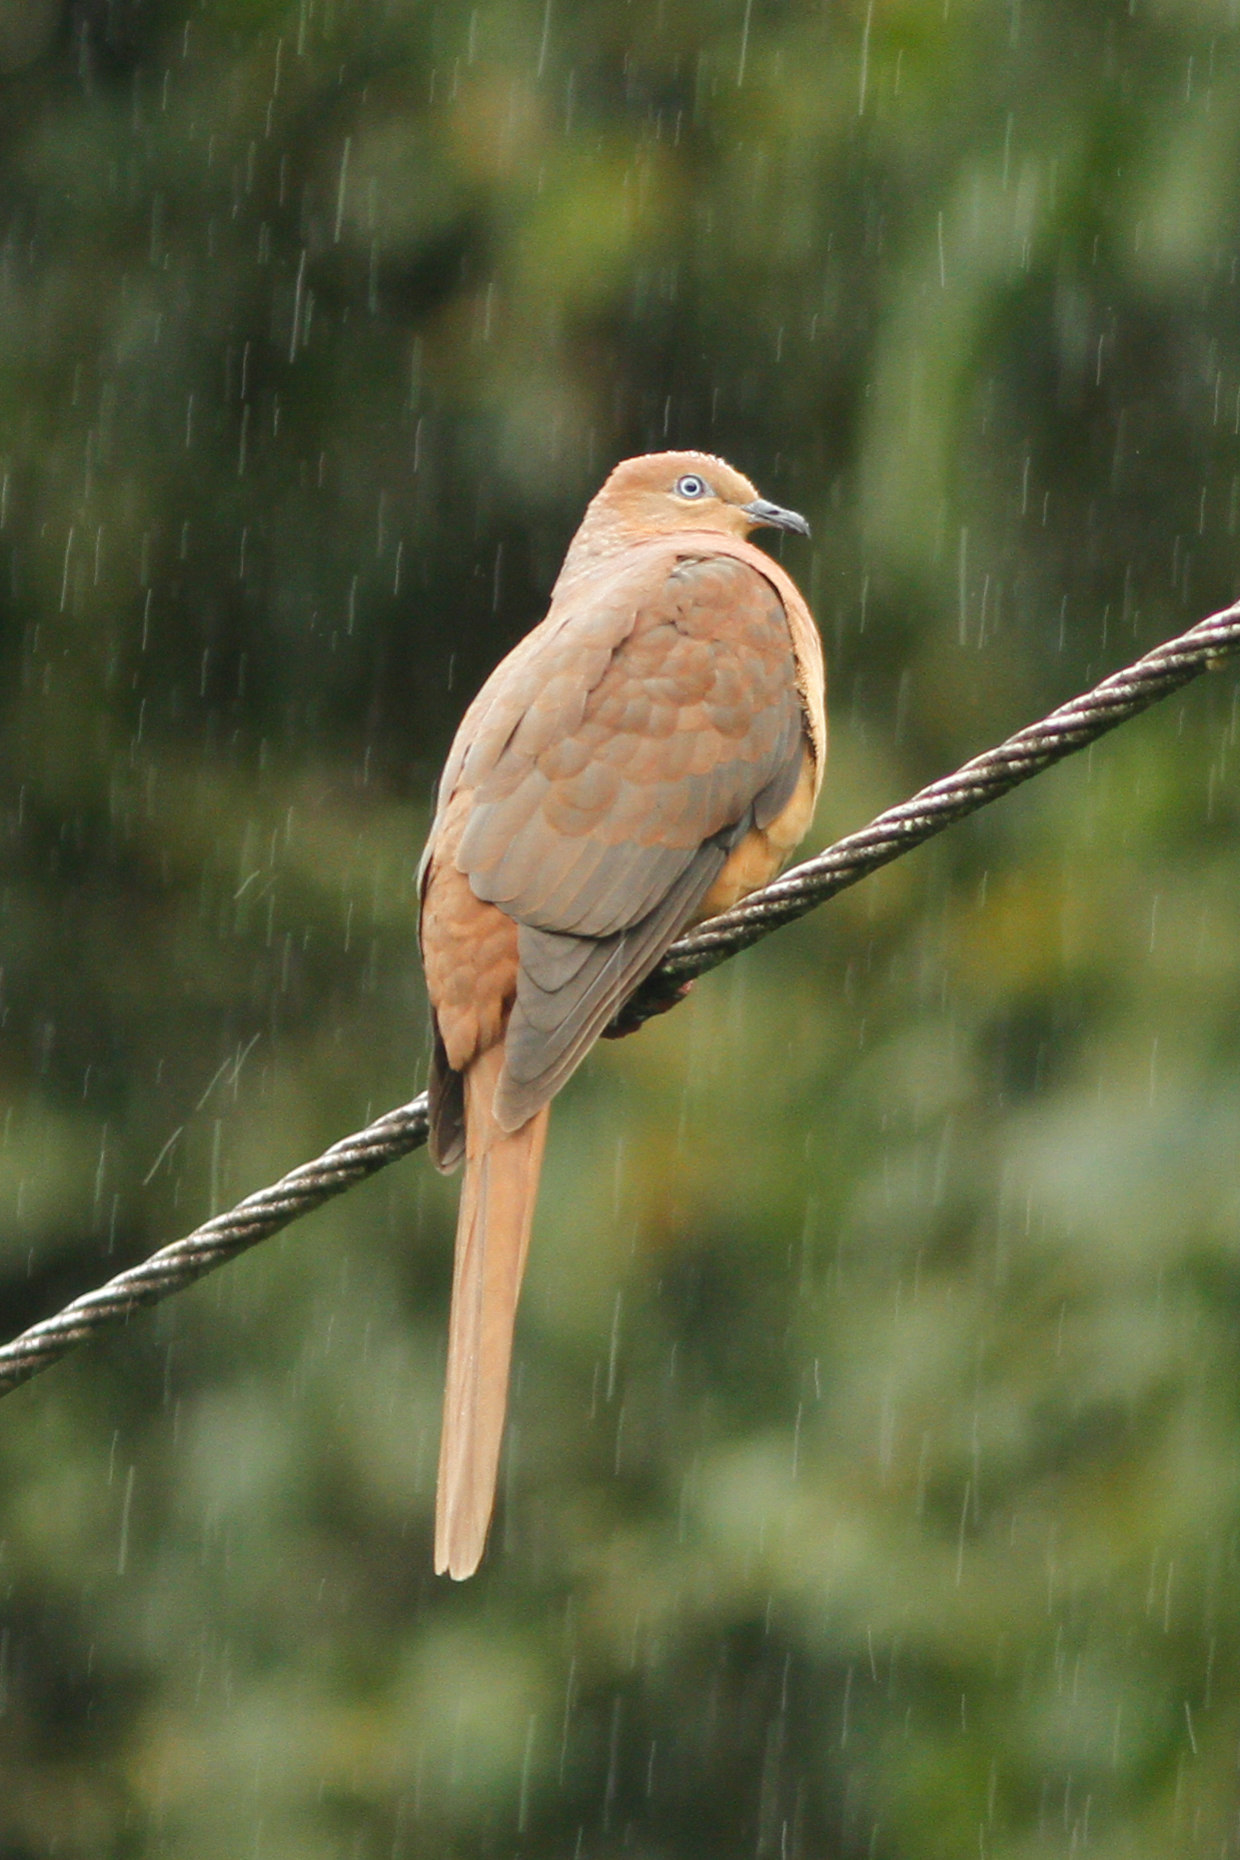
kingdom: Animalia
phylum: Chordata
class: Aves
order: Columbiformes
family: Columbidae
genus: Macropygia
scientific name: Macropygia phasianella
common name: Brown cuckoo-dove
